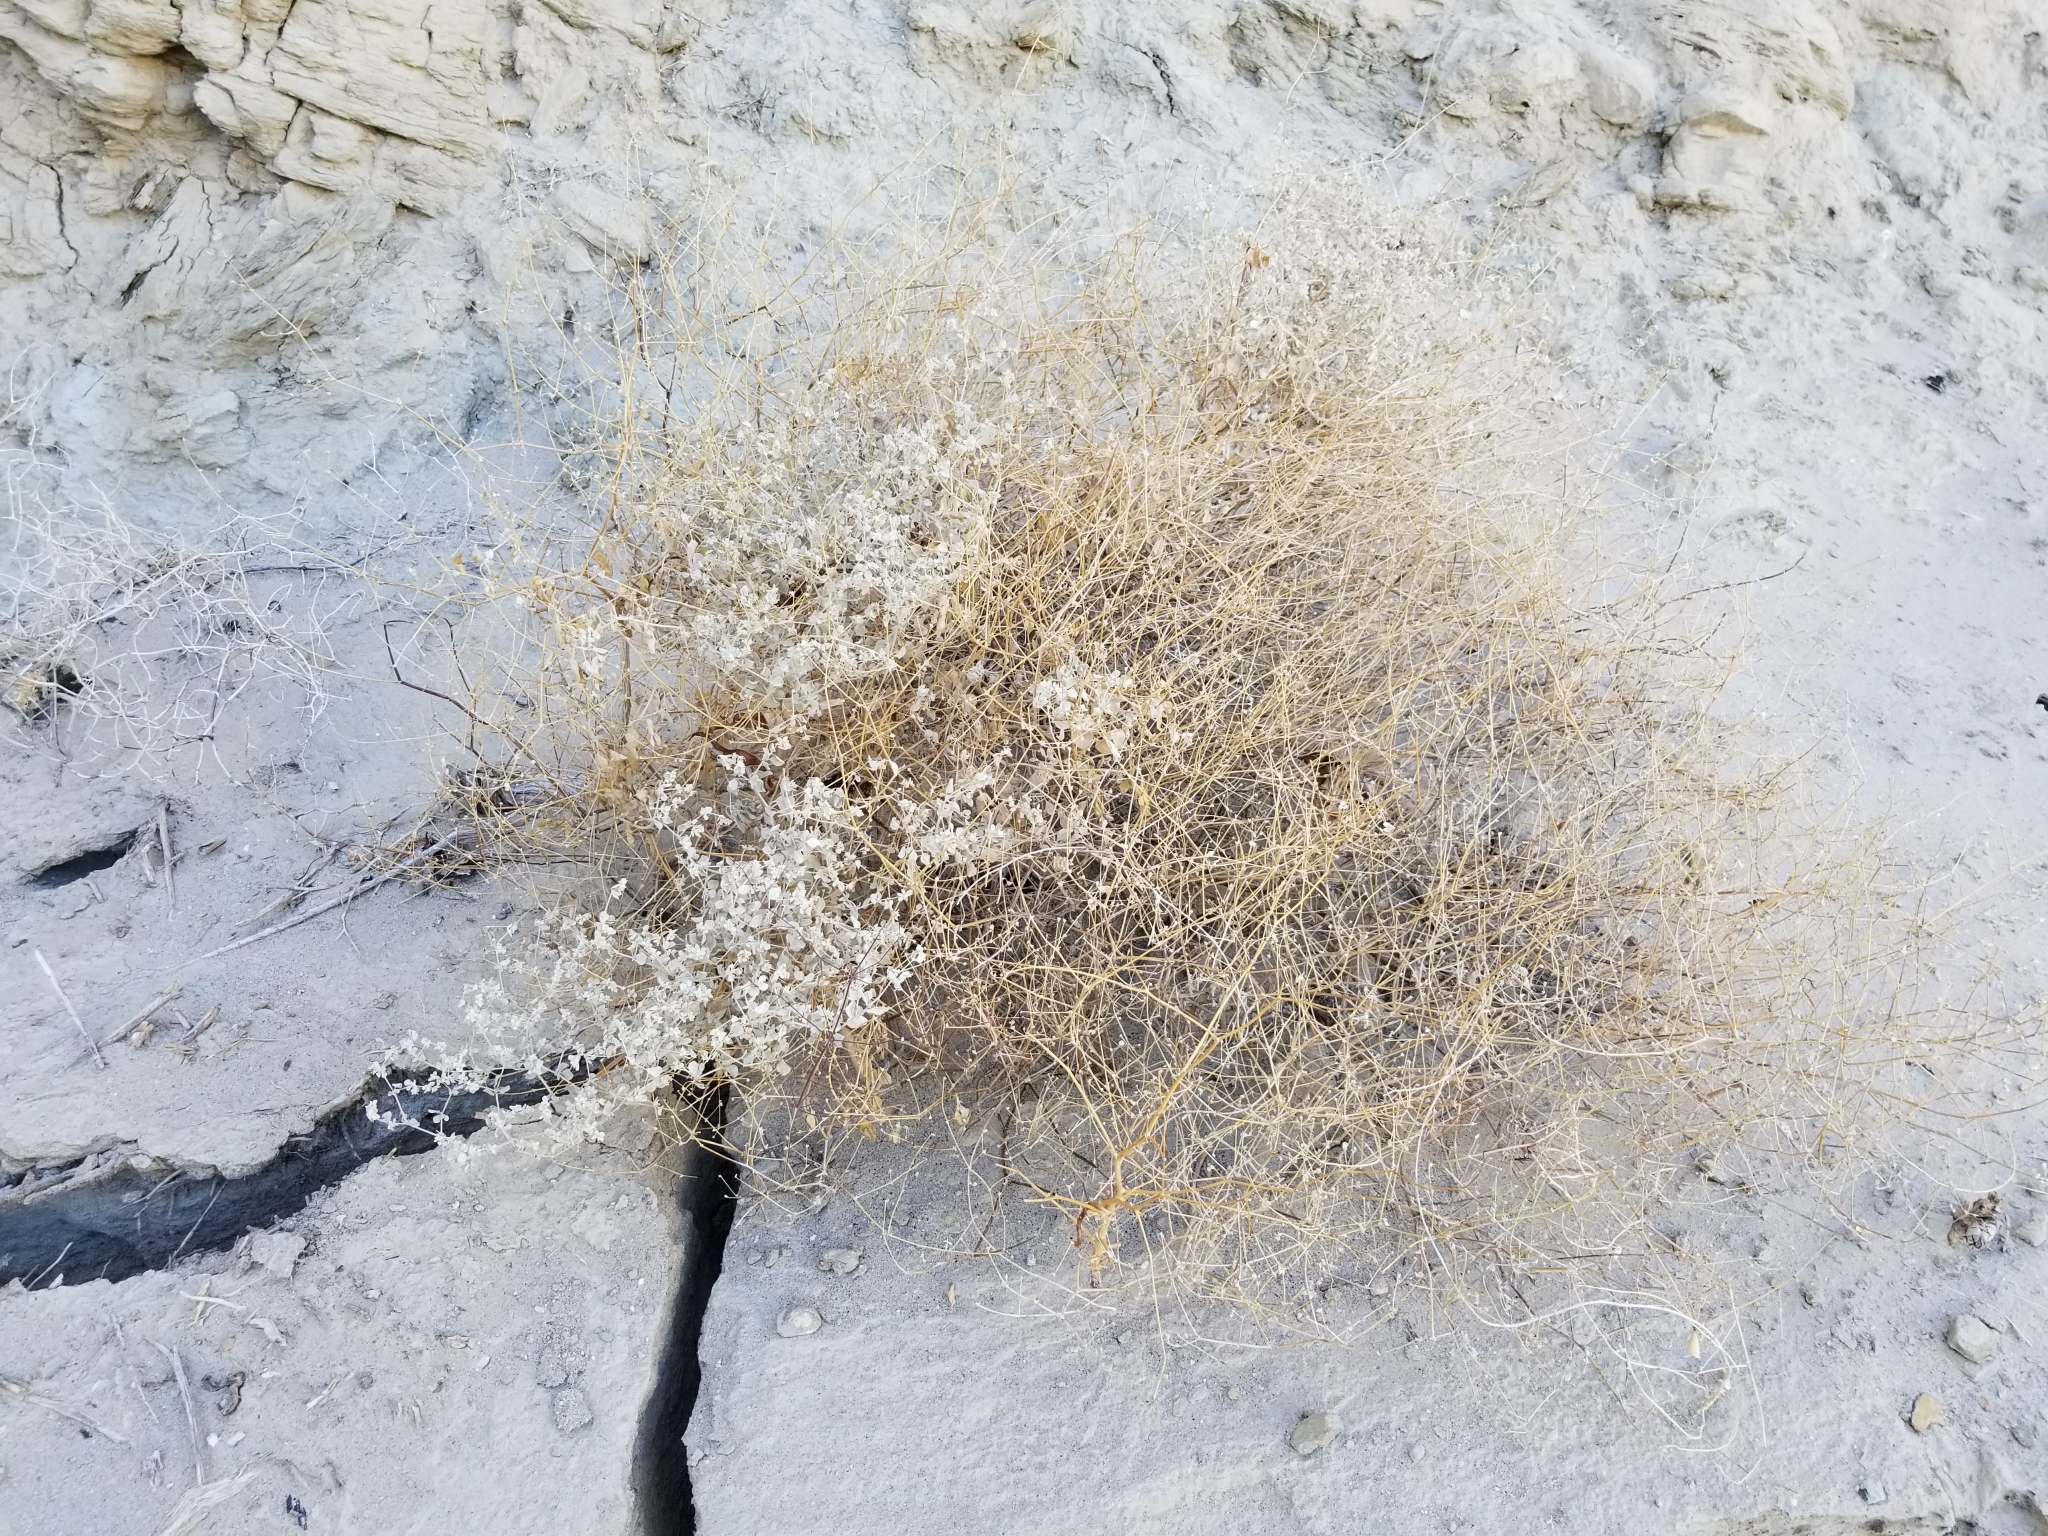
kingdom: Plantae
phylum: Tracheophyta
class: Magnoliopsida
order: Caryophyllales
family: Amaranthaceae
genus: Tidestromia
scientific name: Tidestromia suffruticosa
